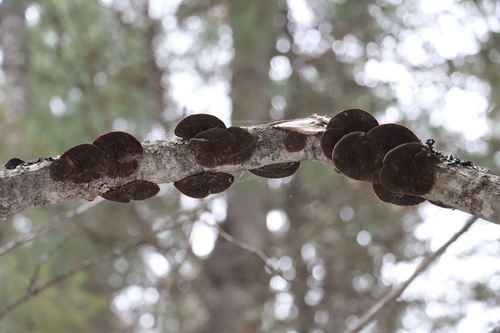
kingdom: Fungi
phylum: Basidiomycota
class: Agaricomycetes
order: Polyporales
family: Polyporaceae
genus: Daedaleopsis
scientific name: Daedaleopsis confragosa
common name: Blushing bracket
